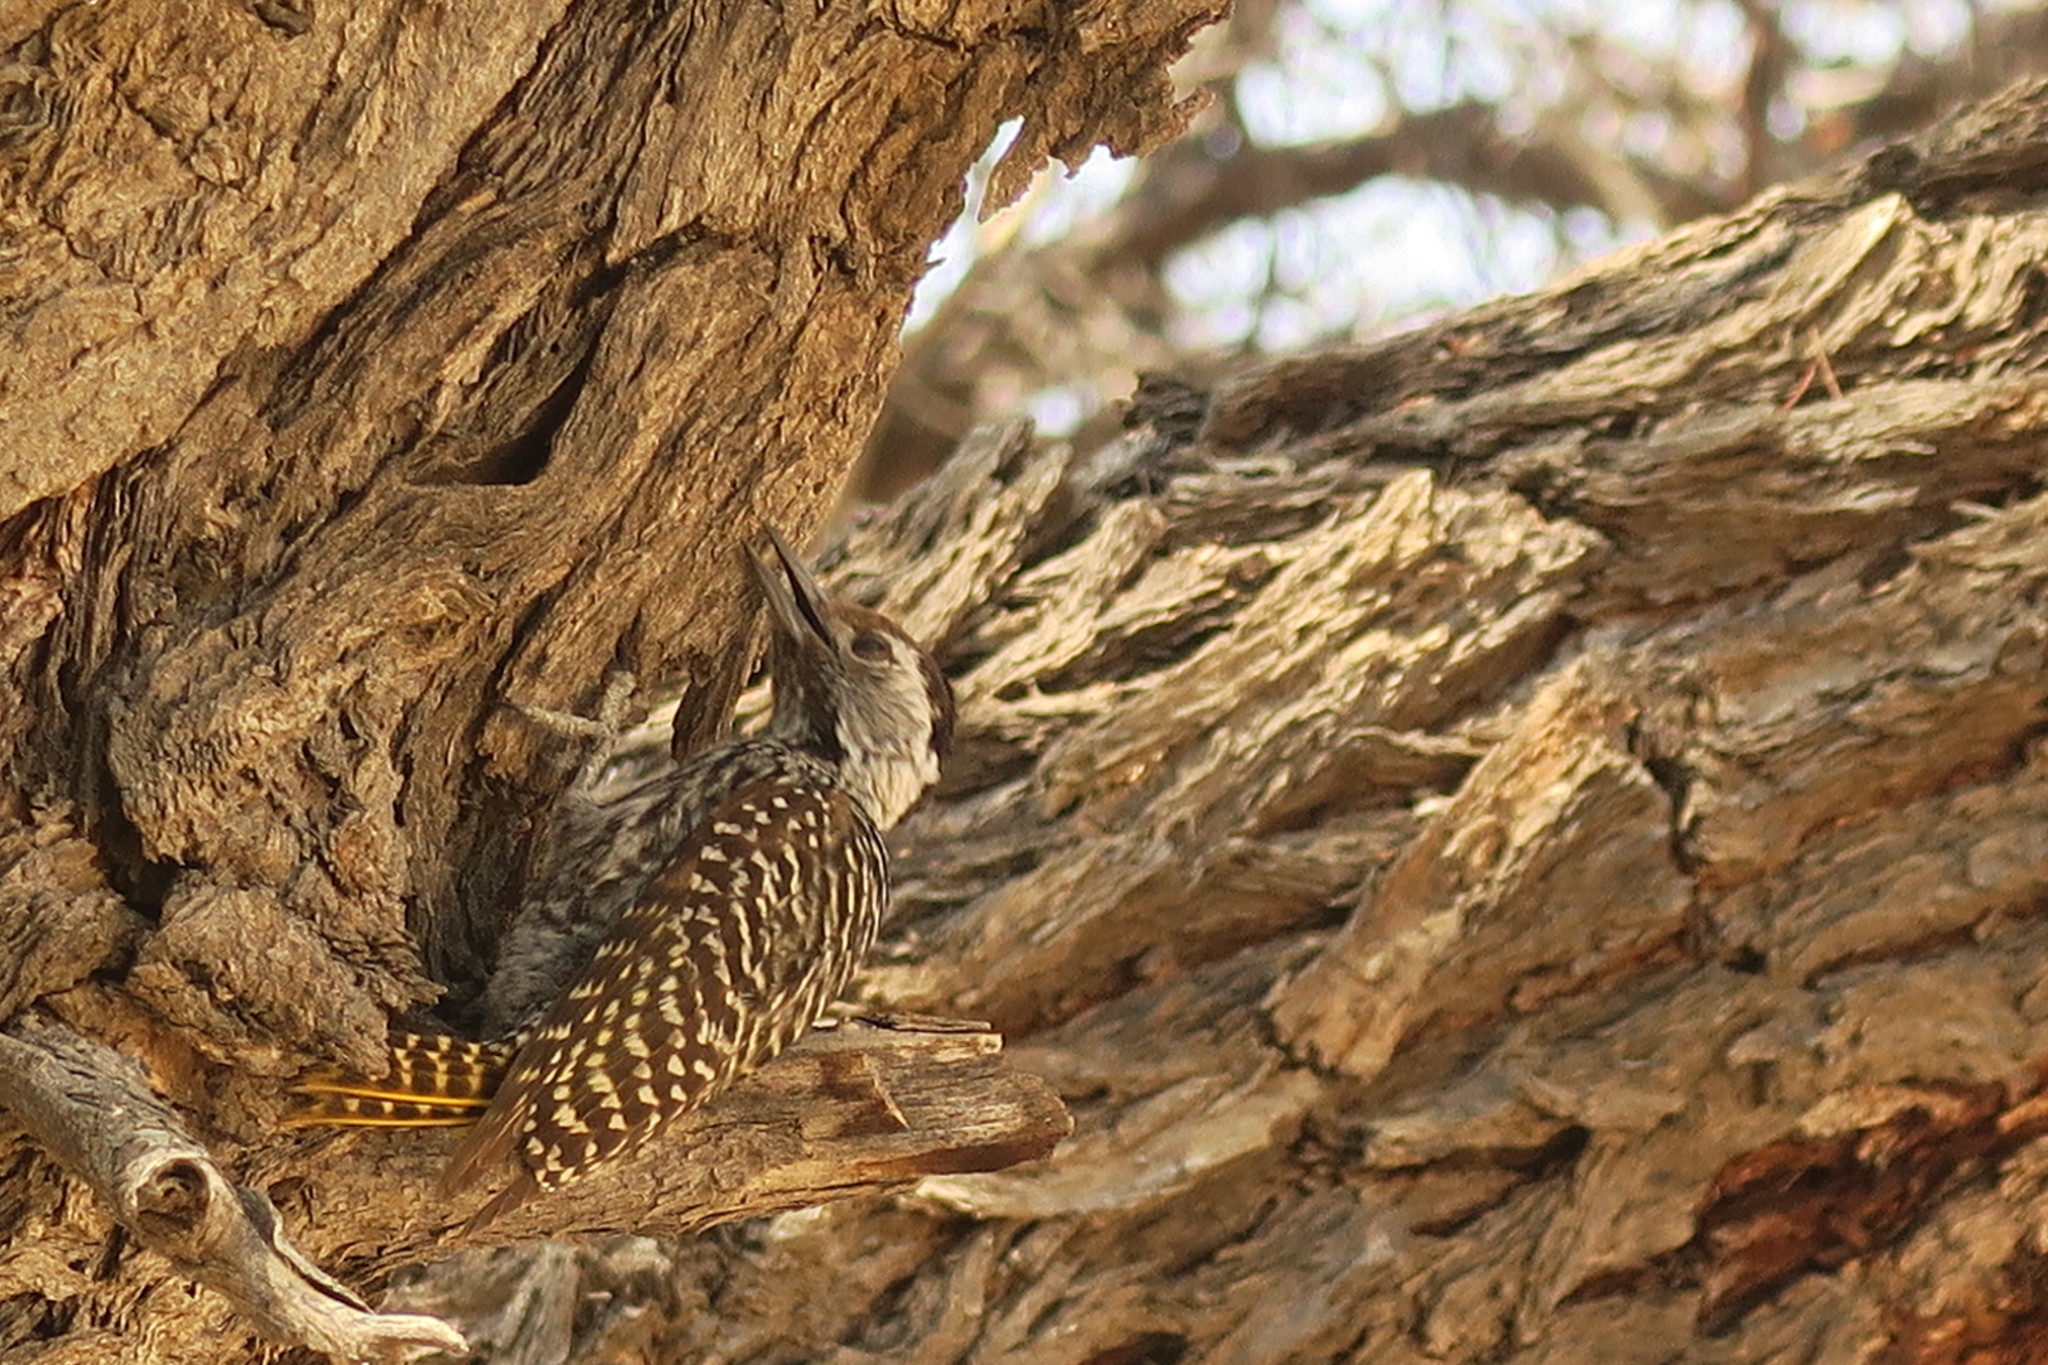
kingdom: Animalia
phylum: Chordata
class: Aves
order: Piciformes
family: Picidae
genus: Dendropicos
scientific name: Dendropicos fuscescens
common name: Cardinal woodpecker
